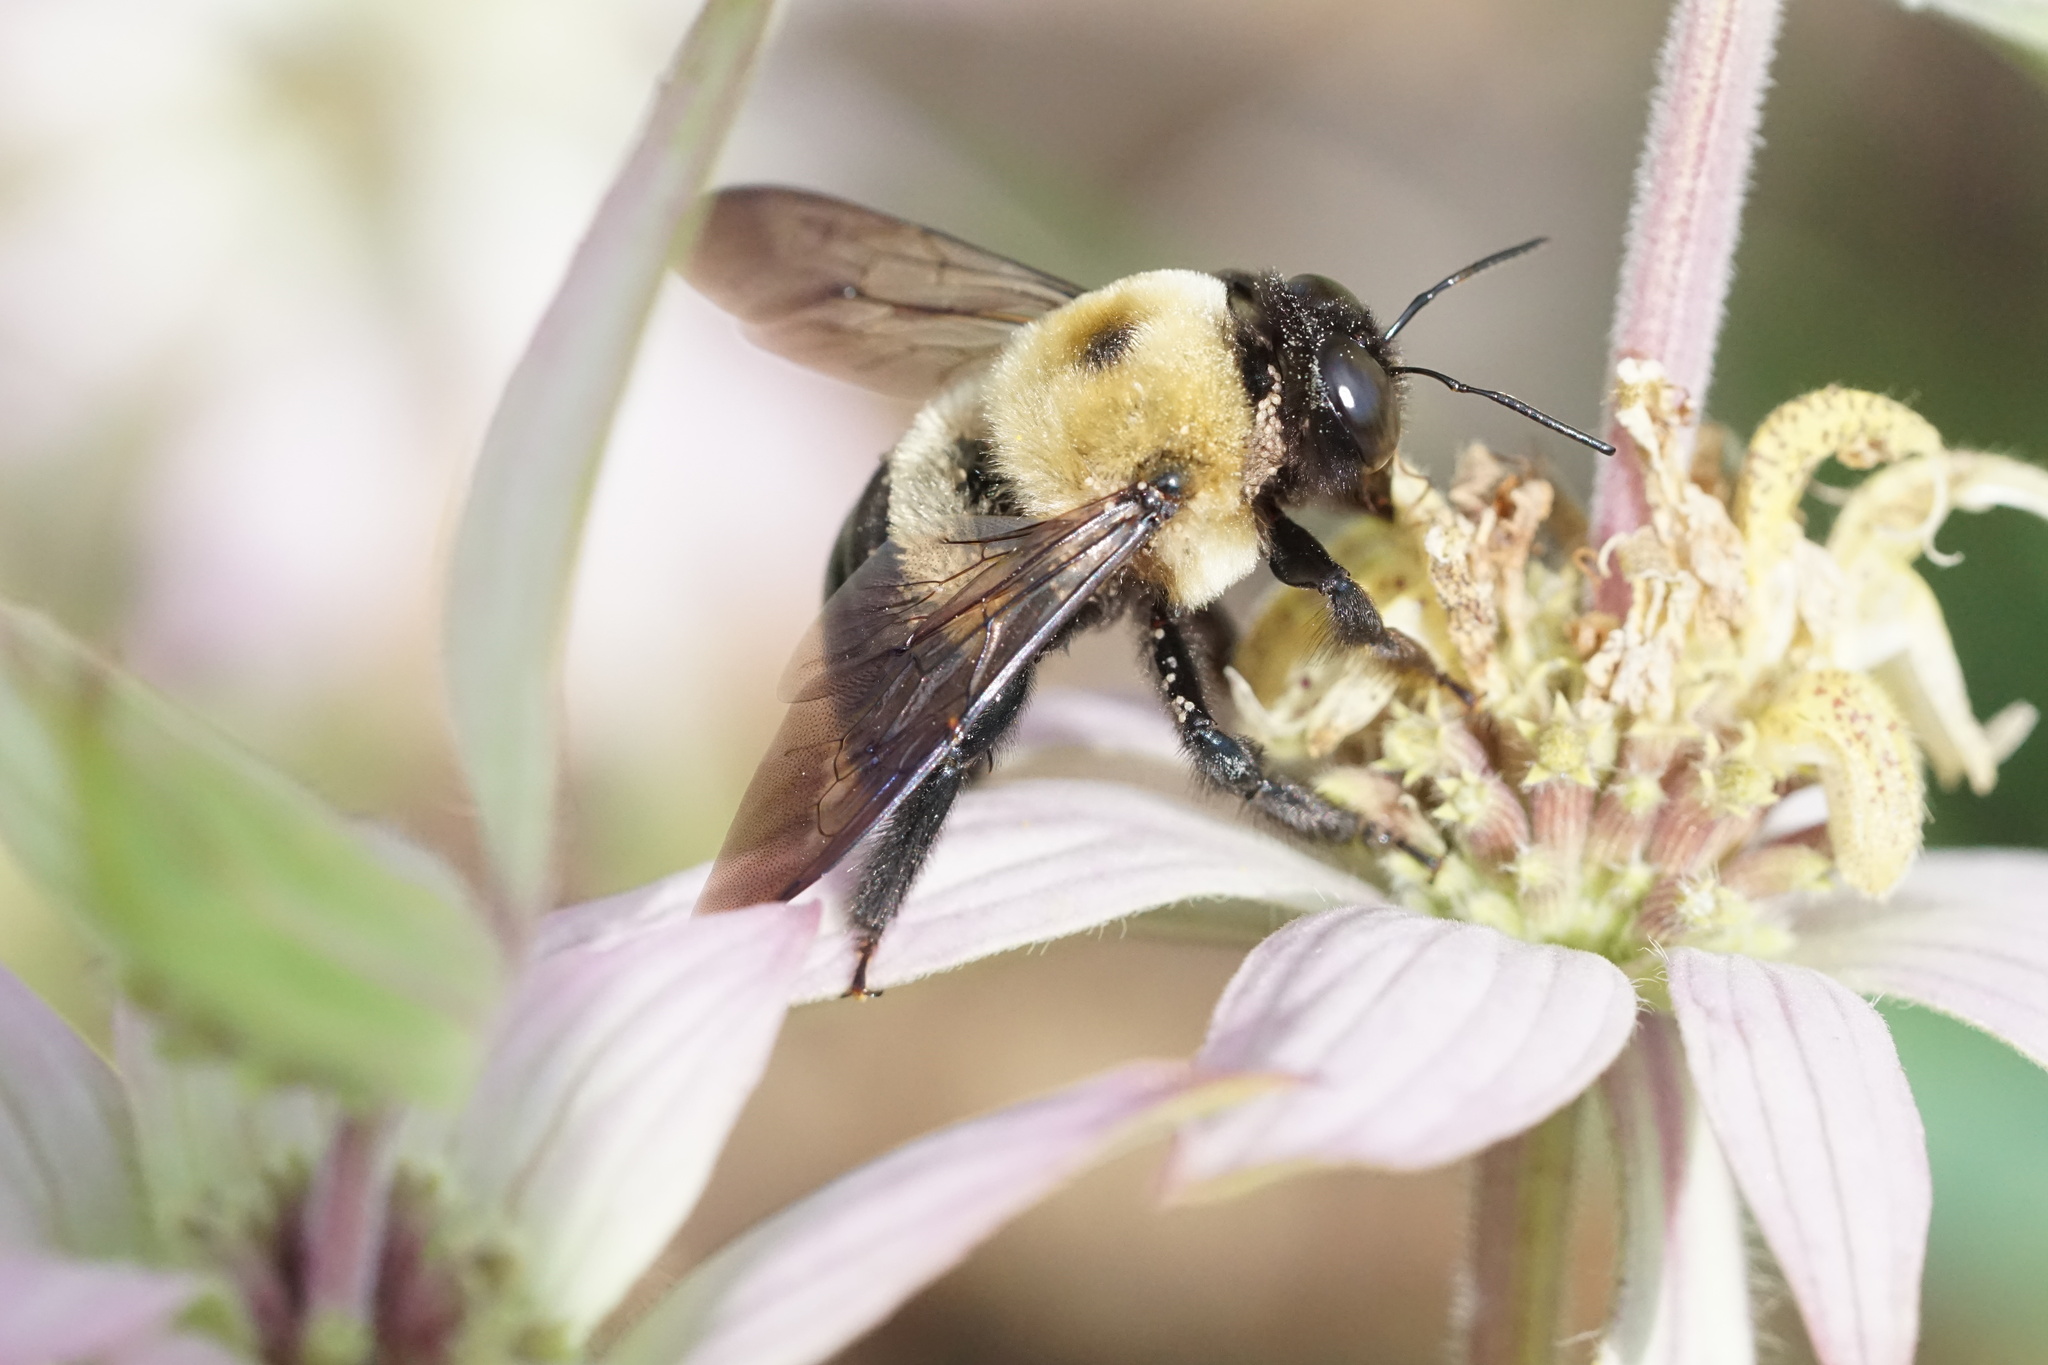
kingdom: Animalia
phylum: Arthropoda
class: Insecta
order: Hymenoptera
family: Apidae
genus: Xylocopa
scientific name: Xylocopa virginica
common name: Carpenter bee
